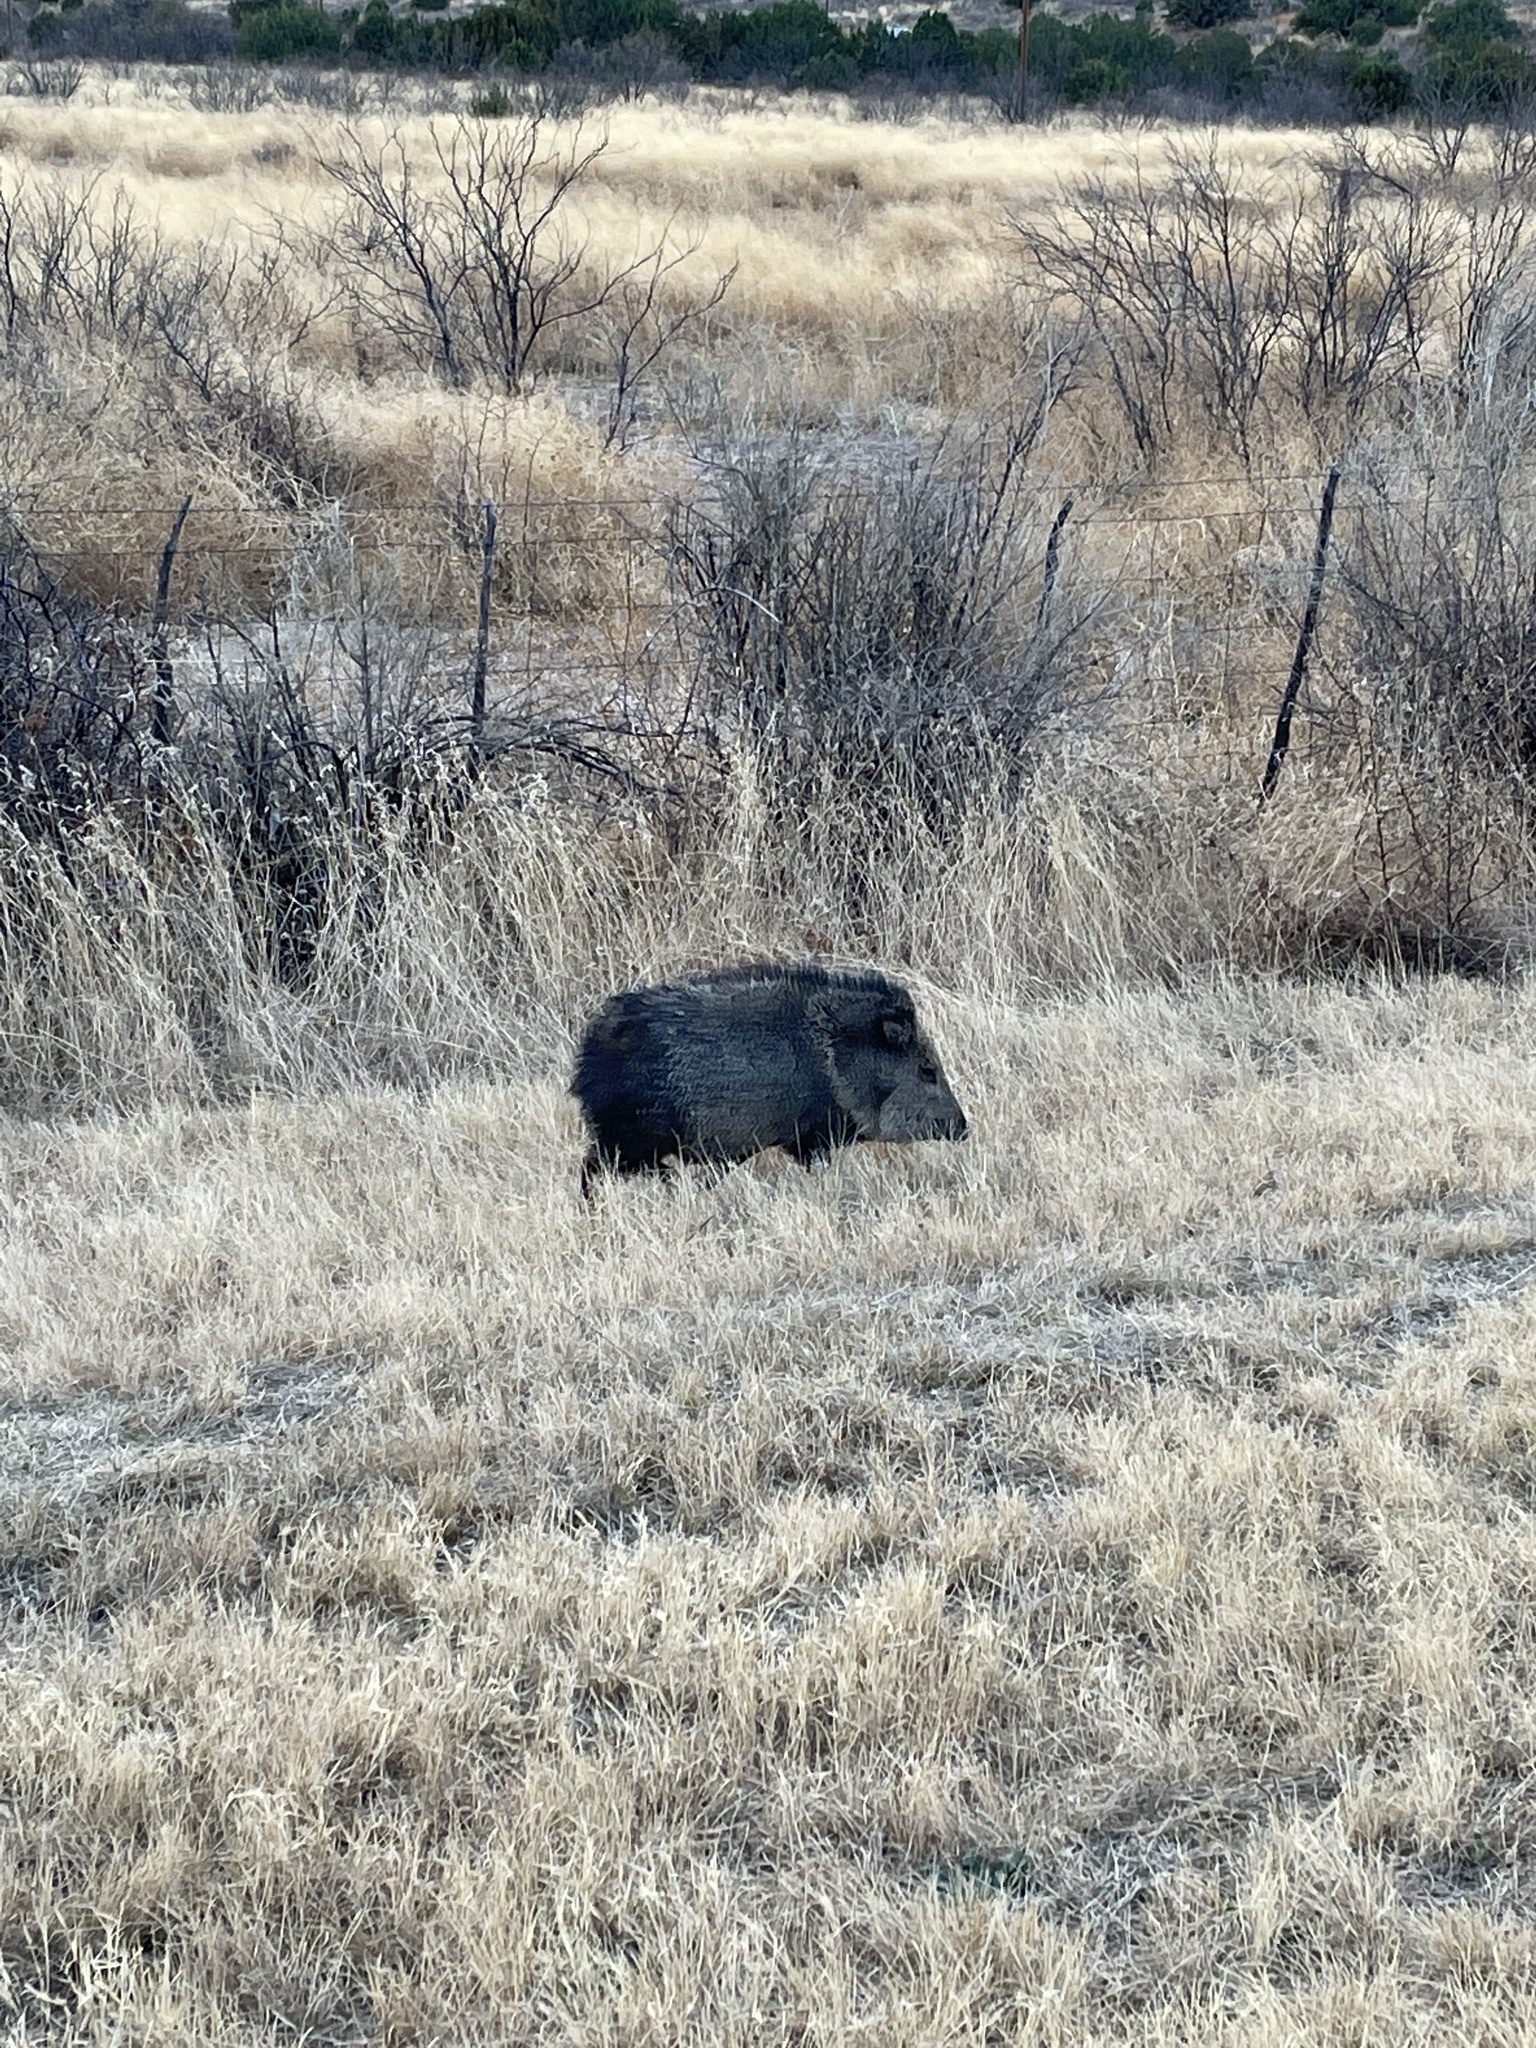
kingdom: Animalia
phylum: Chordata
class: Mammalia
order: Artiodactyla
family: Tayassuidae
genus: Pecari
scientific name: Pecari tajacu
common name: Collared peccary
